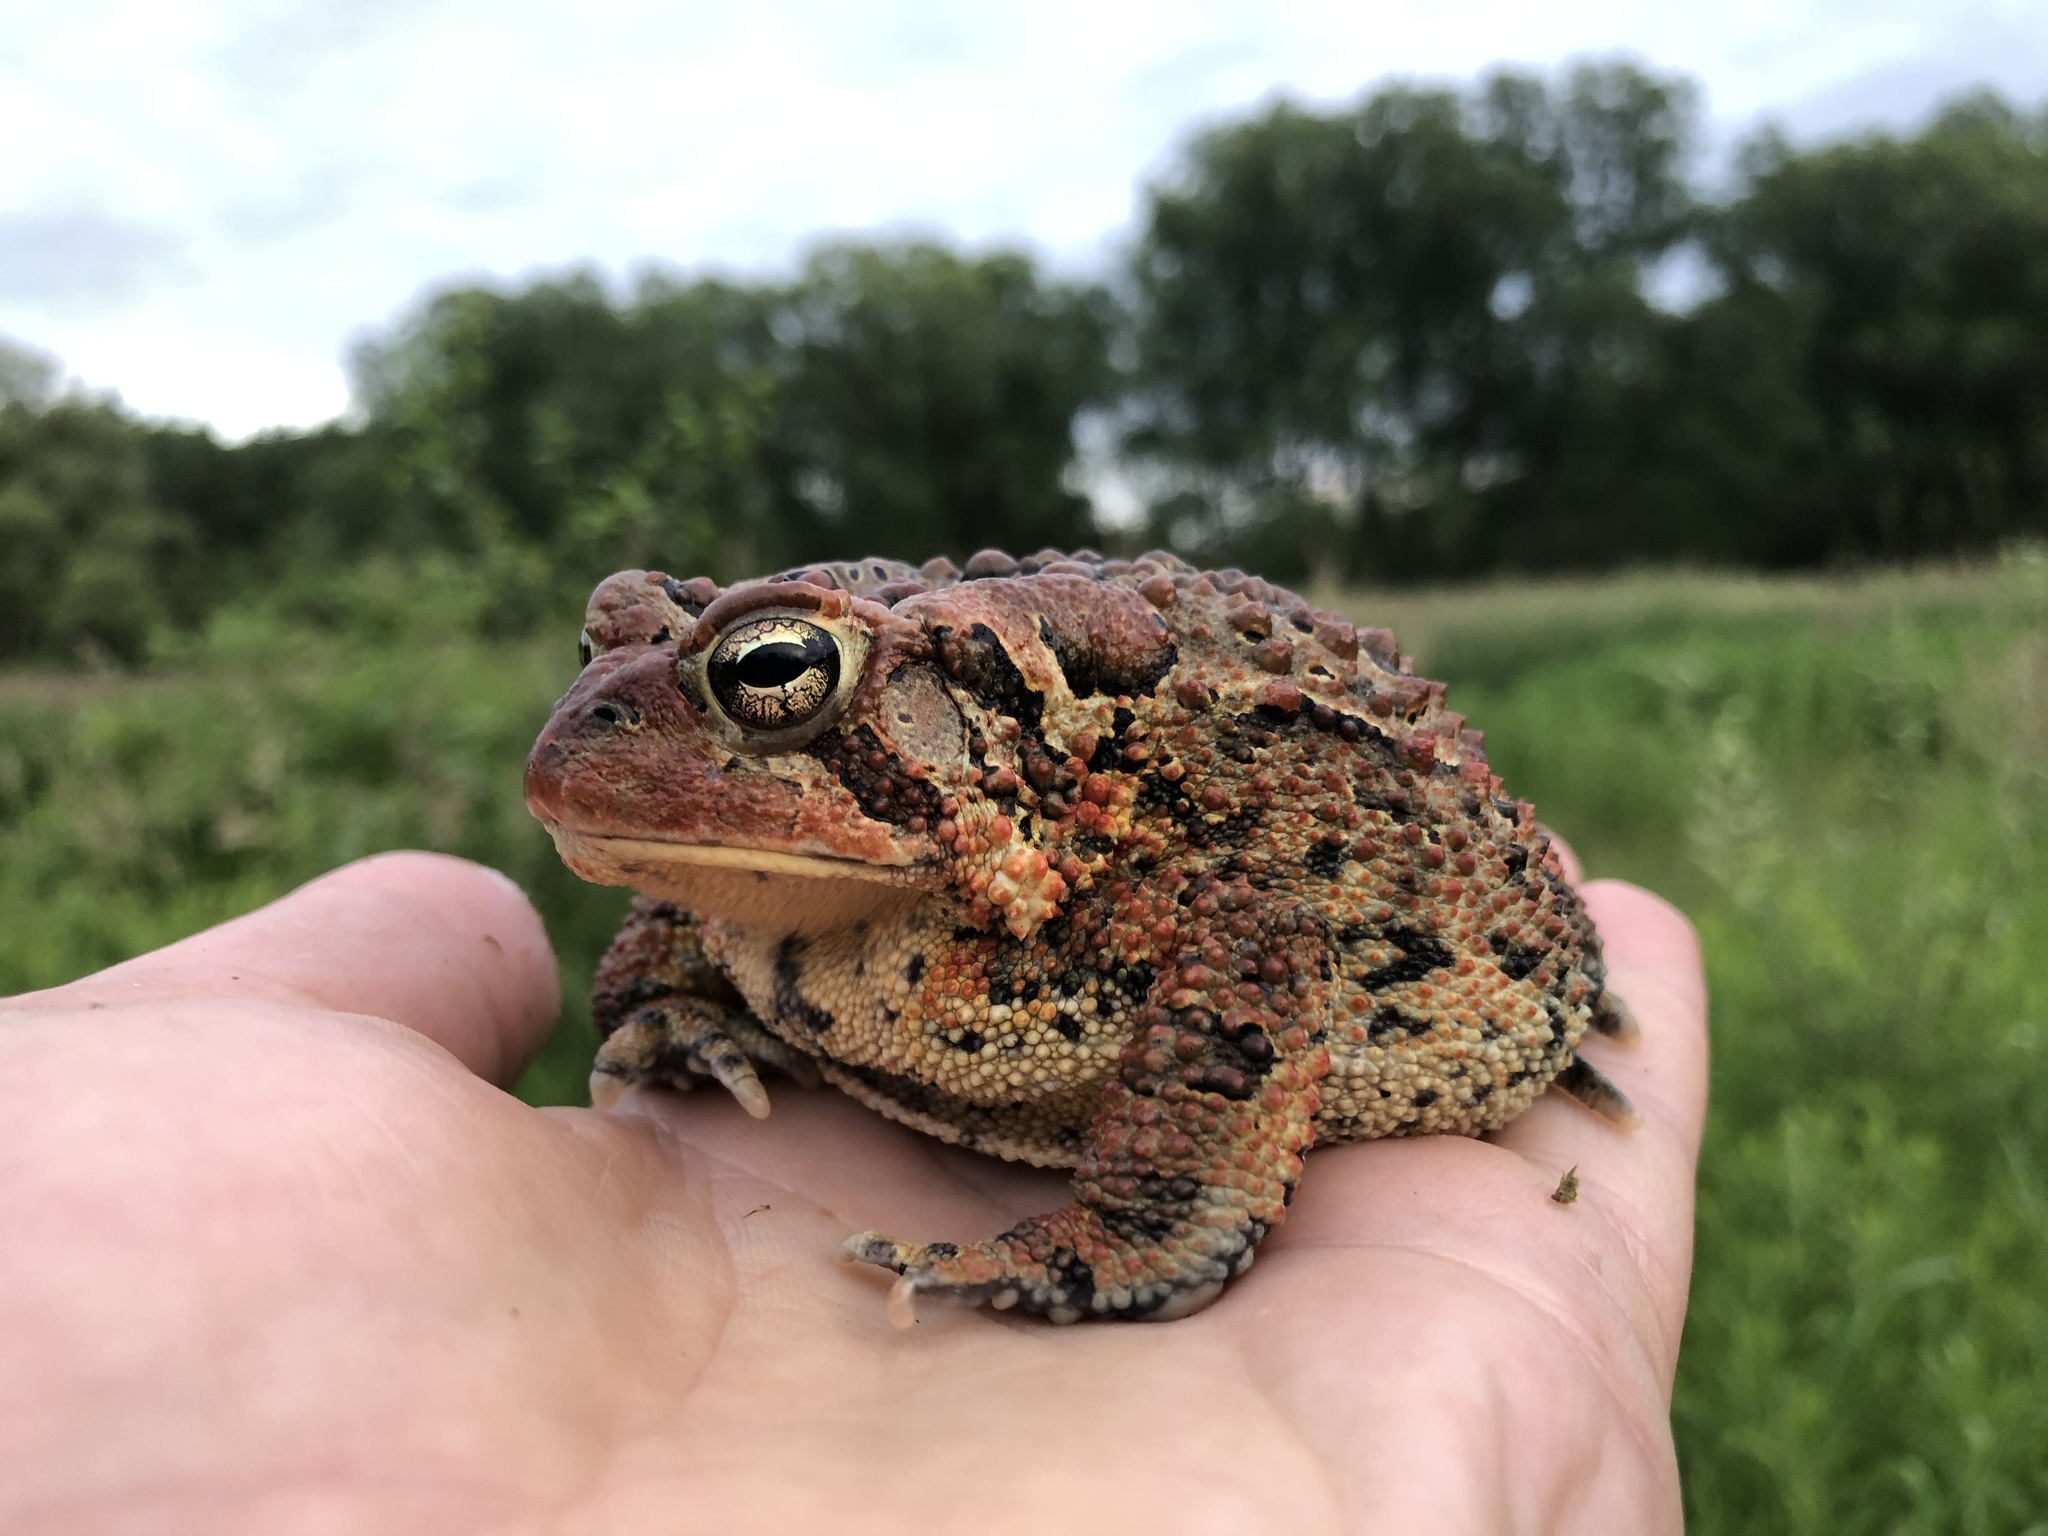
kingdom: Animalia
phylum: Chordata
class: Amphibia
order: Anura
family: Bufonidae
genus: Anaxyrus
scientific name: Anaxyrus americanus
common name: American toad
